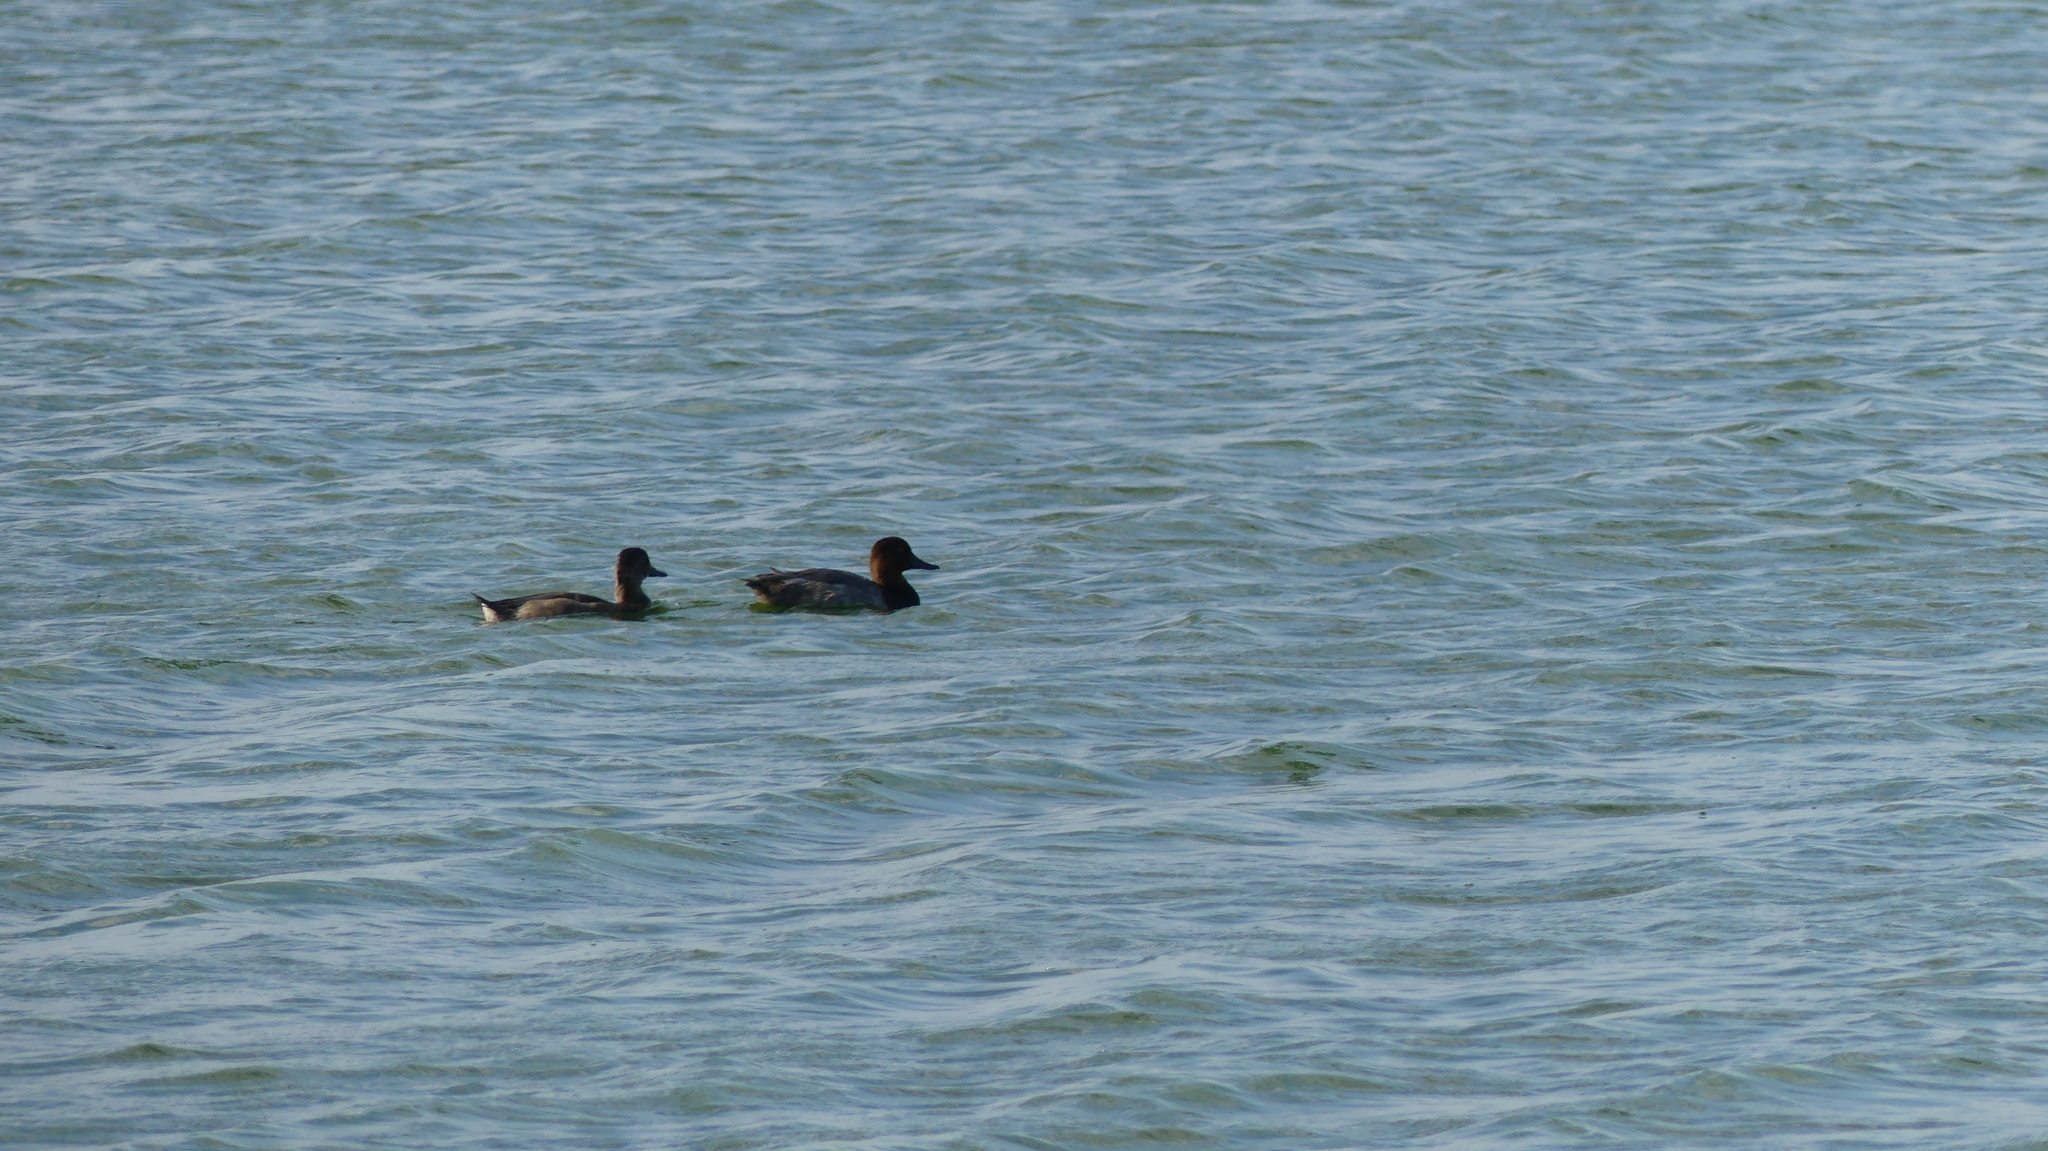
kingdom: Animalia
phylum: Chordata
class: Aves
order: Anseriformes
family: Anatidae
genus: Aythya
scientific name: Aythya americana
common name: Redhead
